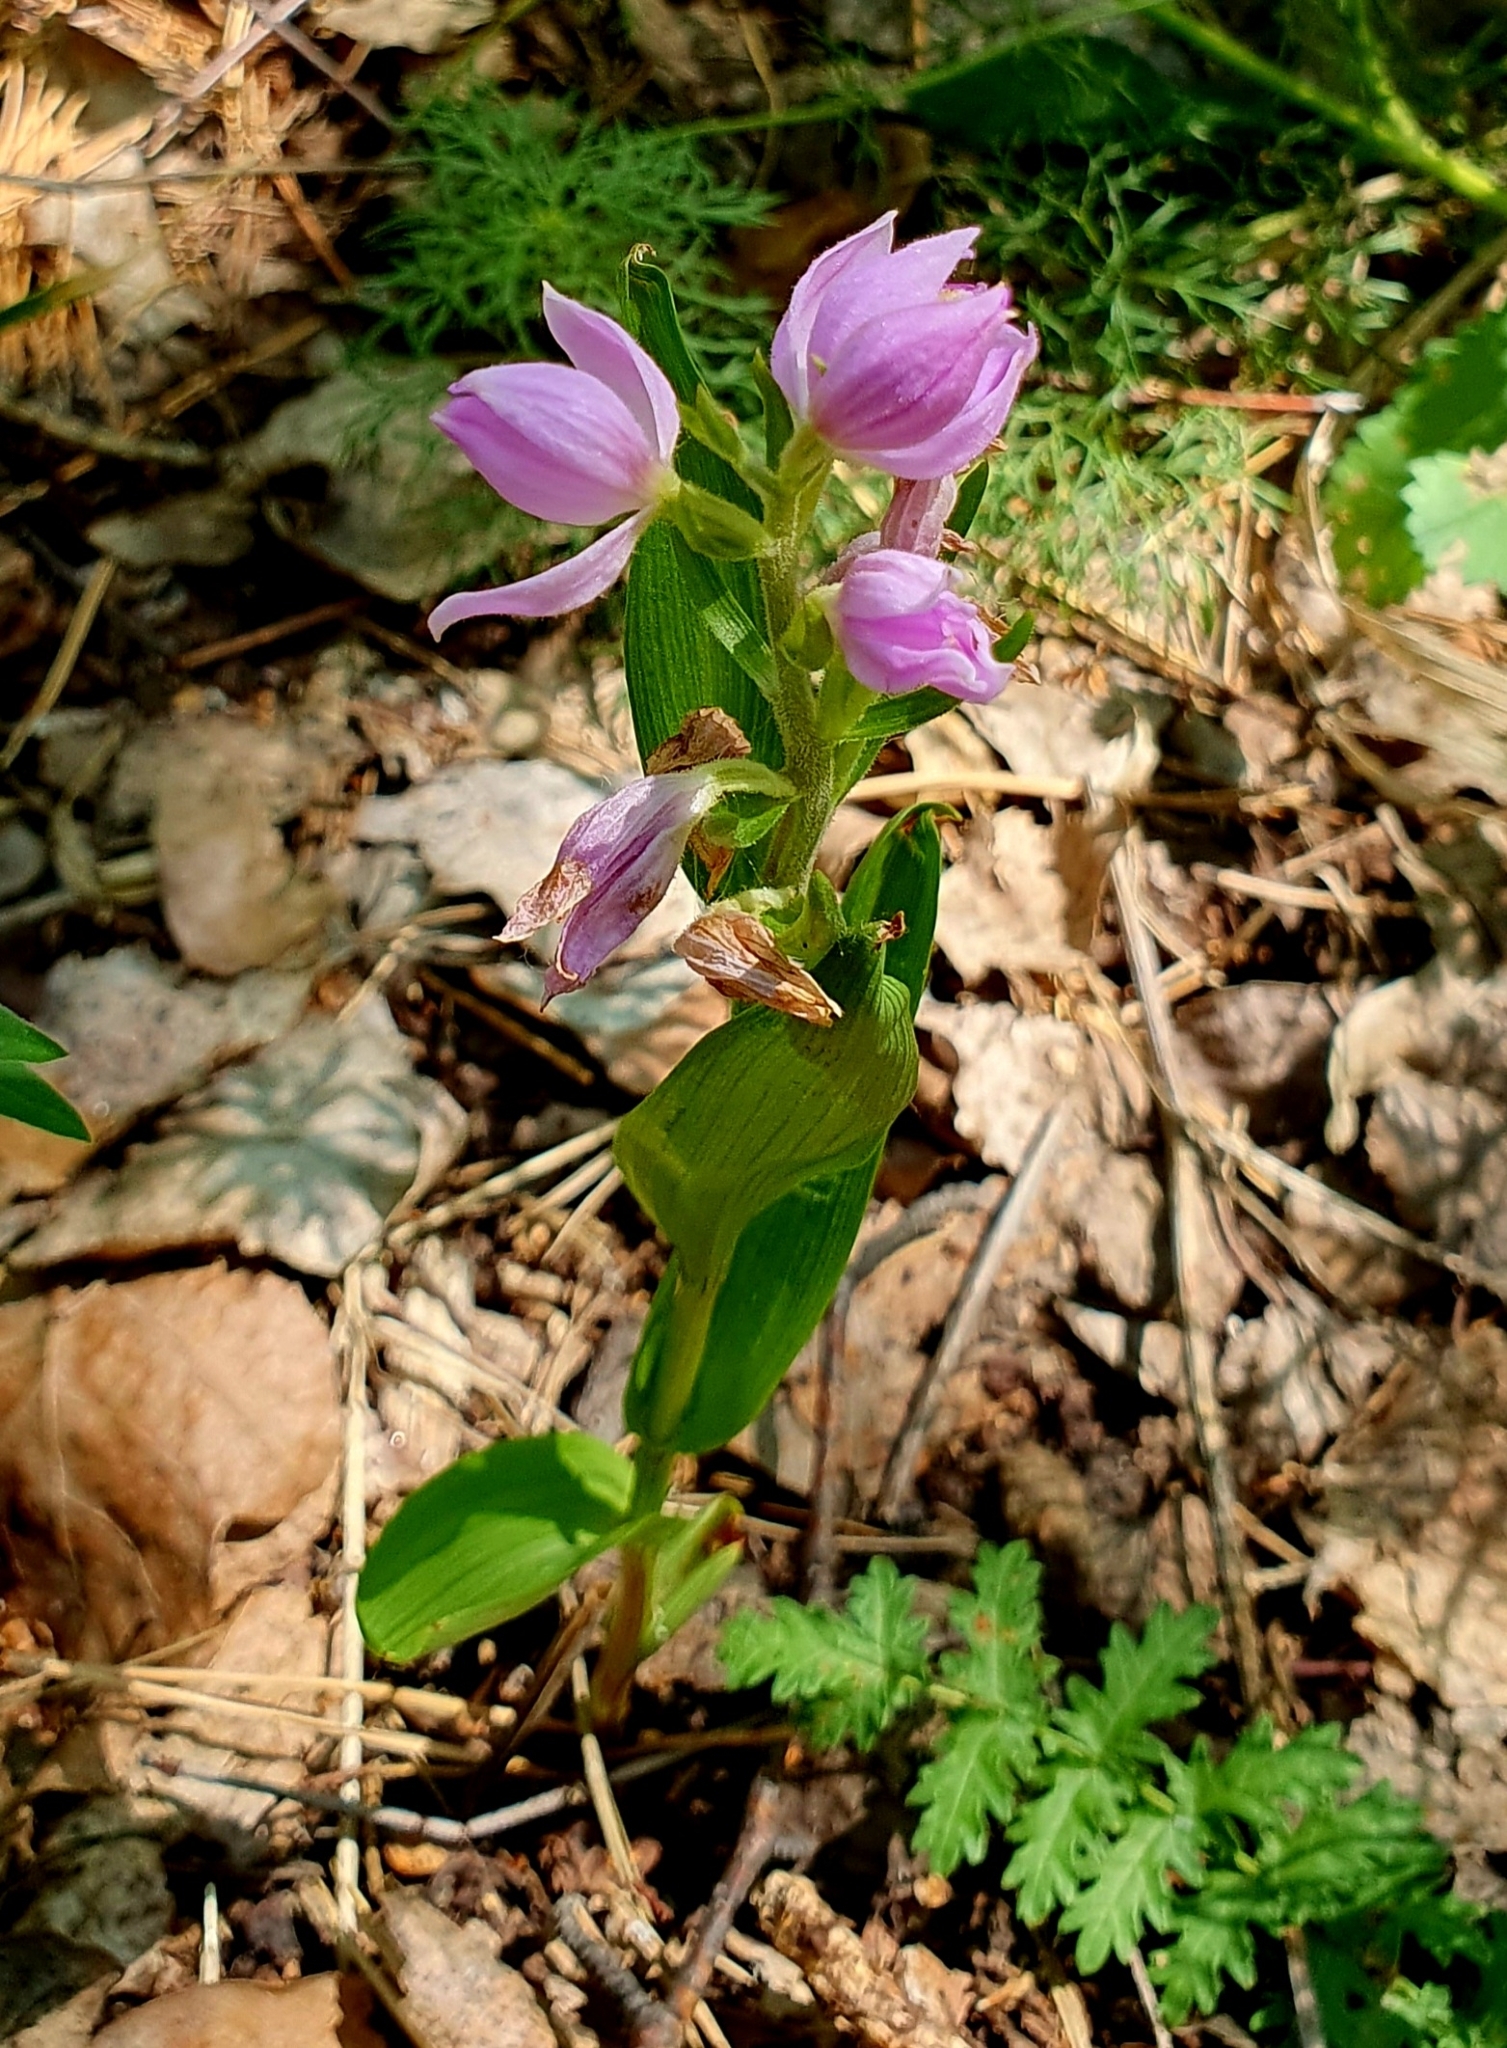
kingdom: Plantae
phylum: Tracheophyta
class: Liliopsida
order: Asparagales
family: Orchidaceae
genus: Cephalanthera
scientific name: Cephalanthera rubra
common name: Red helleborine
